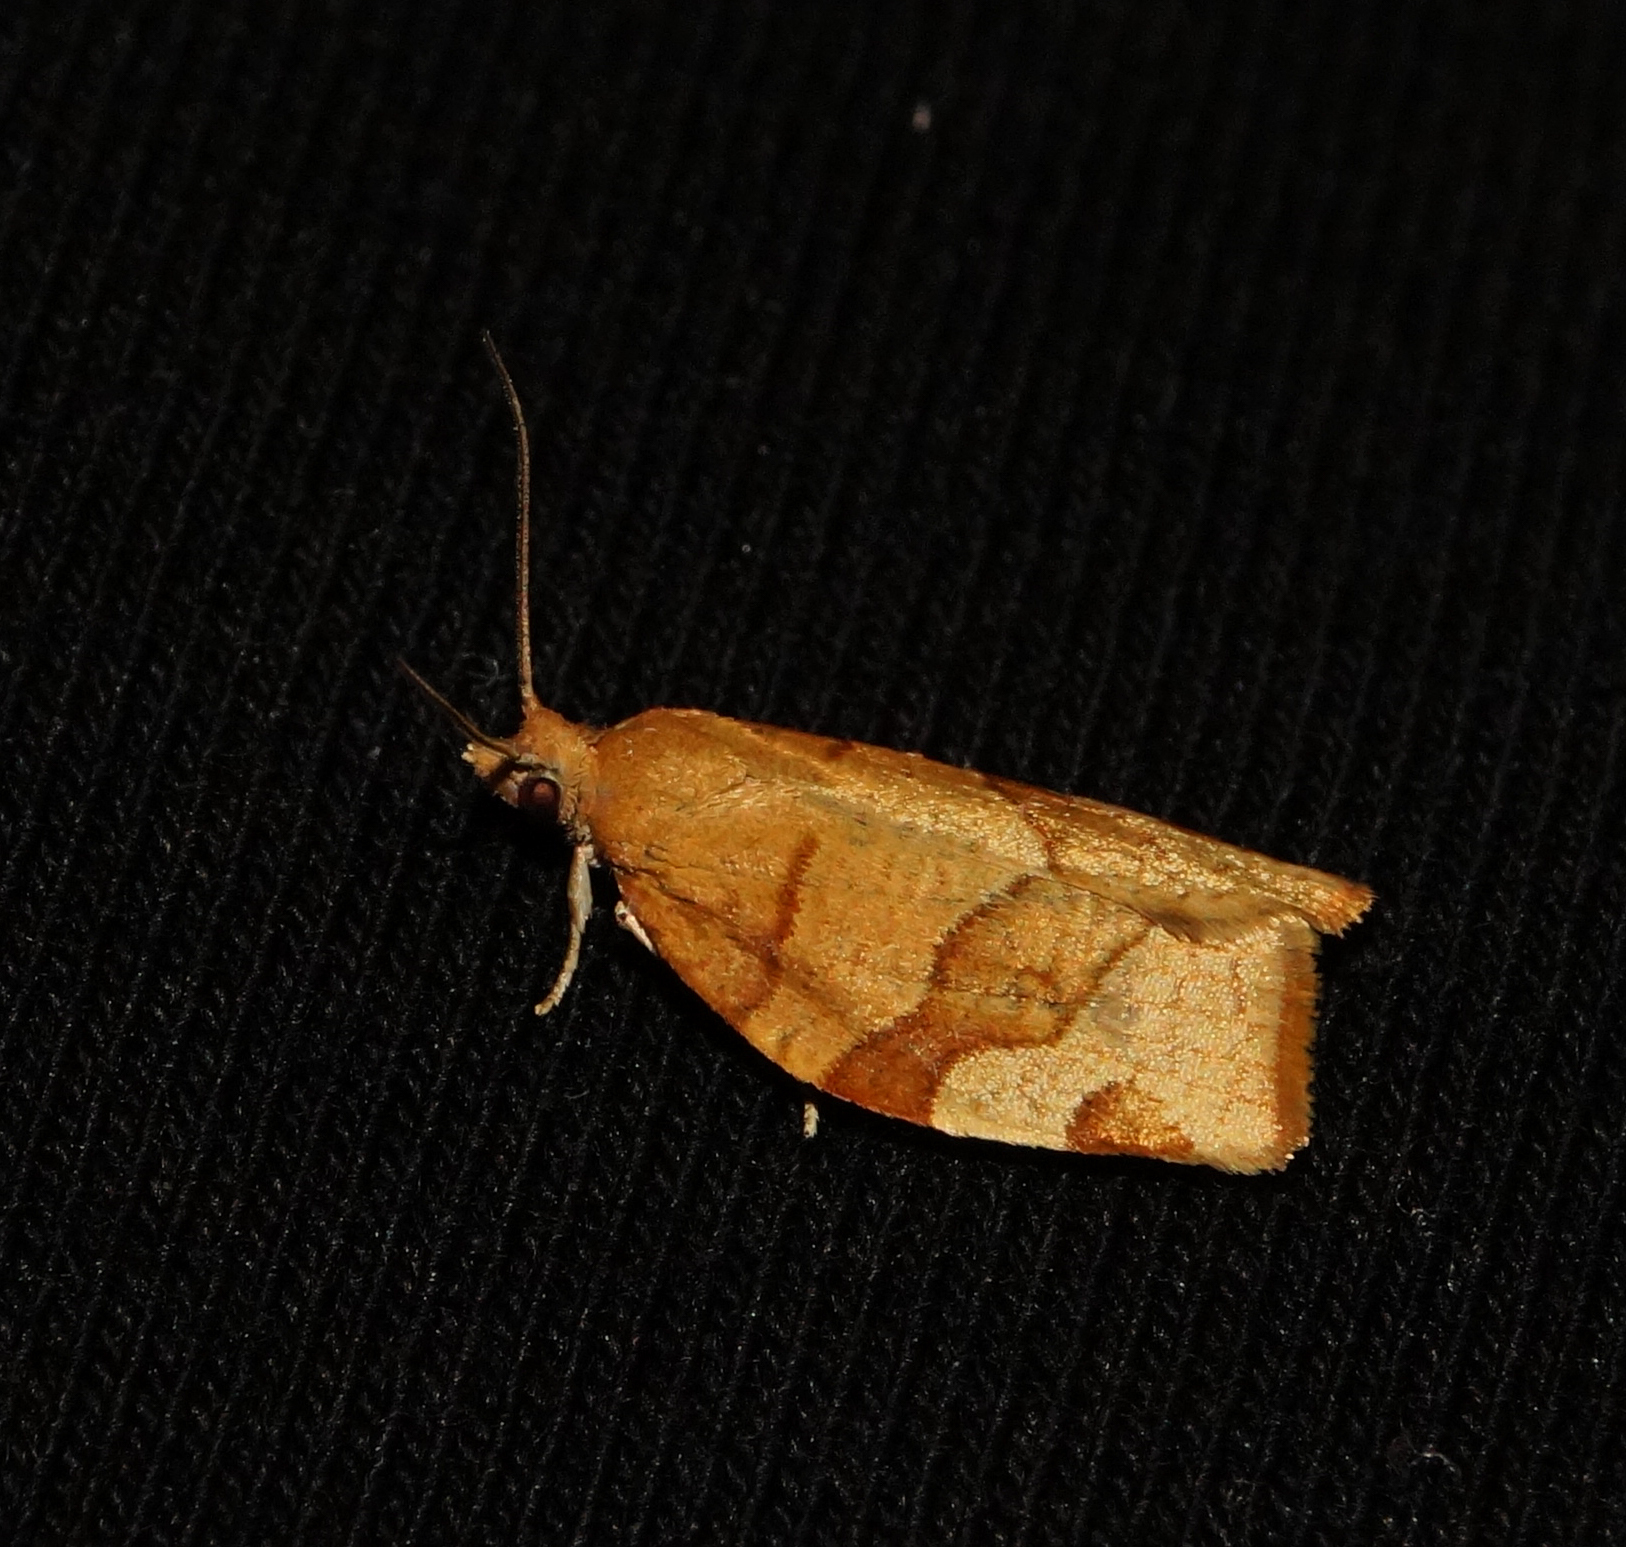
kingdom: Animalia
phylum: Arthropoda
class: Insecta
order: Lepidoptera
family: Tortricidae
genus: Pandemis
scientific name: Pandemis cerasana
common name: Barred fruit-tree tortrix
